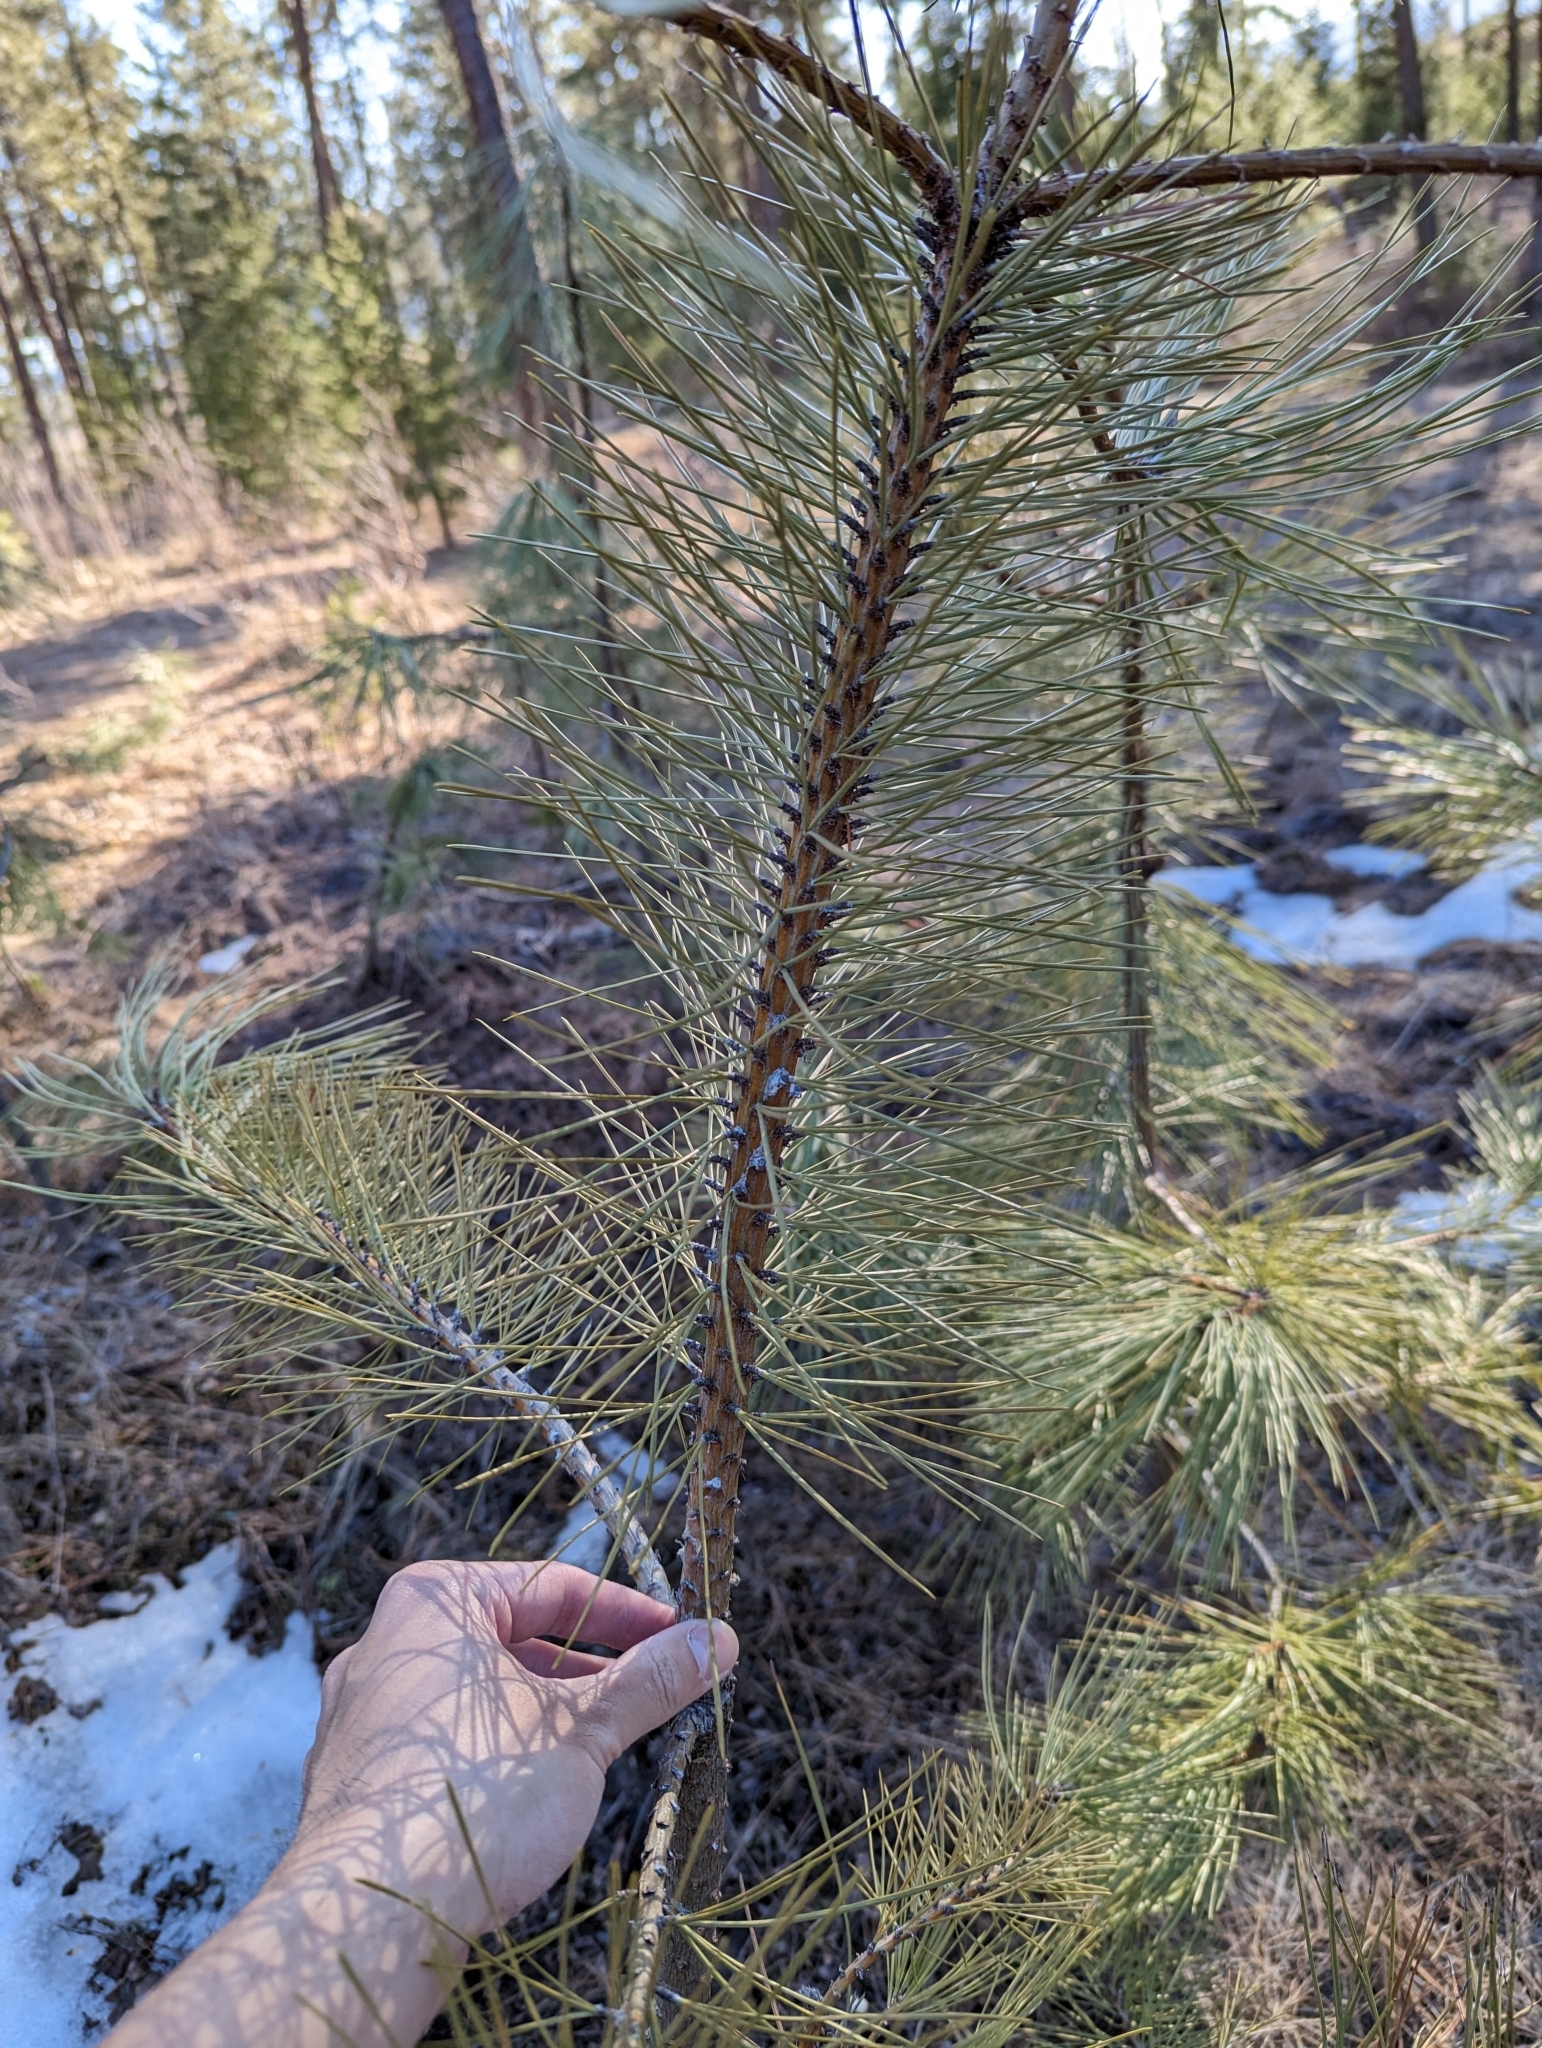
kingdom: Plantae
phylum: Tracheophyta
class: Pinopsida
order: Pinales
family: Pinaceae
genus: Pinus
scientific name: Pinus ponderosa
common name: Western yellow-pine
